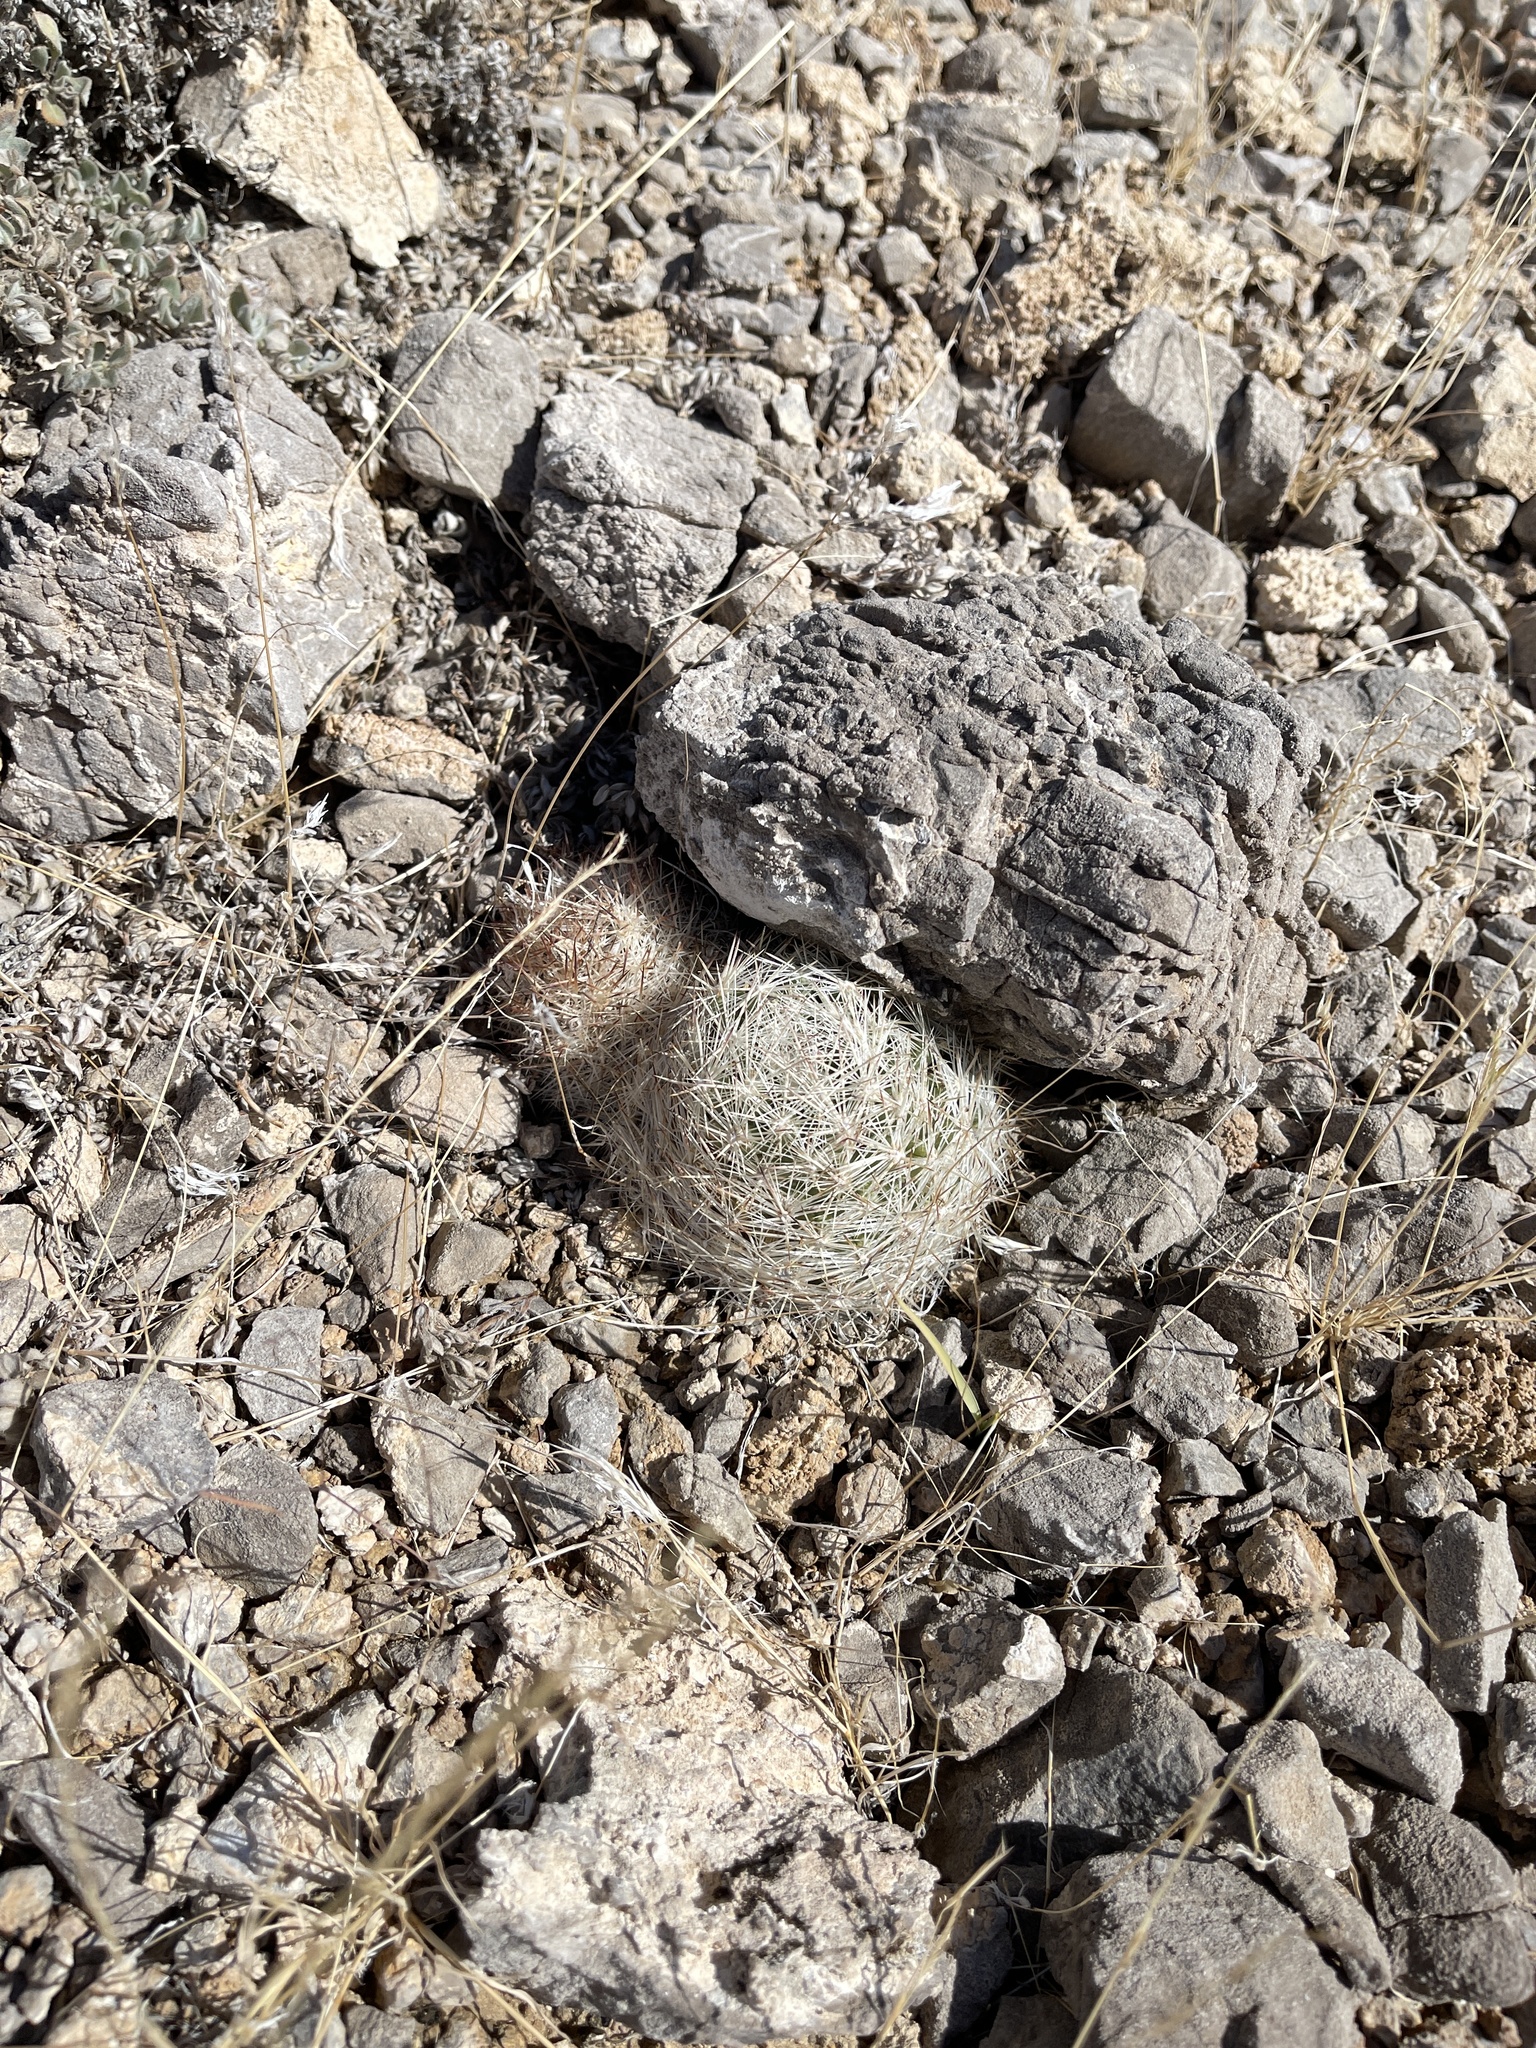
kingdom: Plantae
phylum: Tracheophyta
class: Magnoliopsida
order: Caryophyllales
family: Cactaceae
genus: Pelecyphora
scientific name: Pelecyphora dasyacantha
